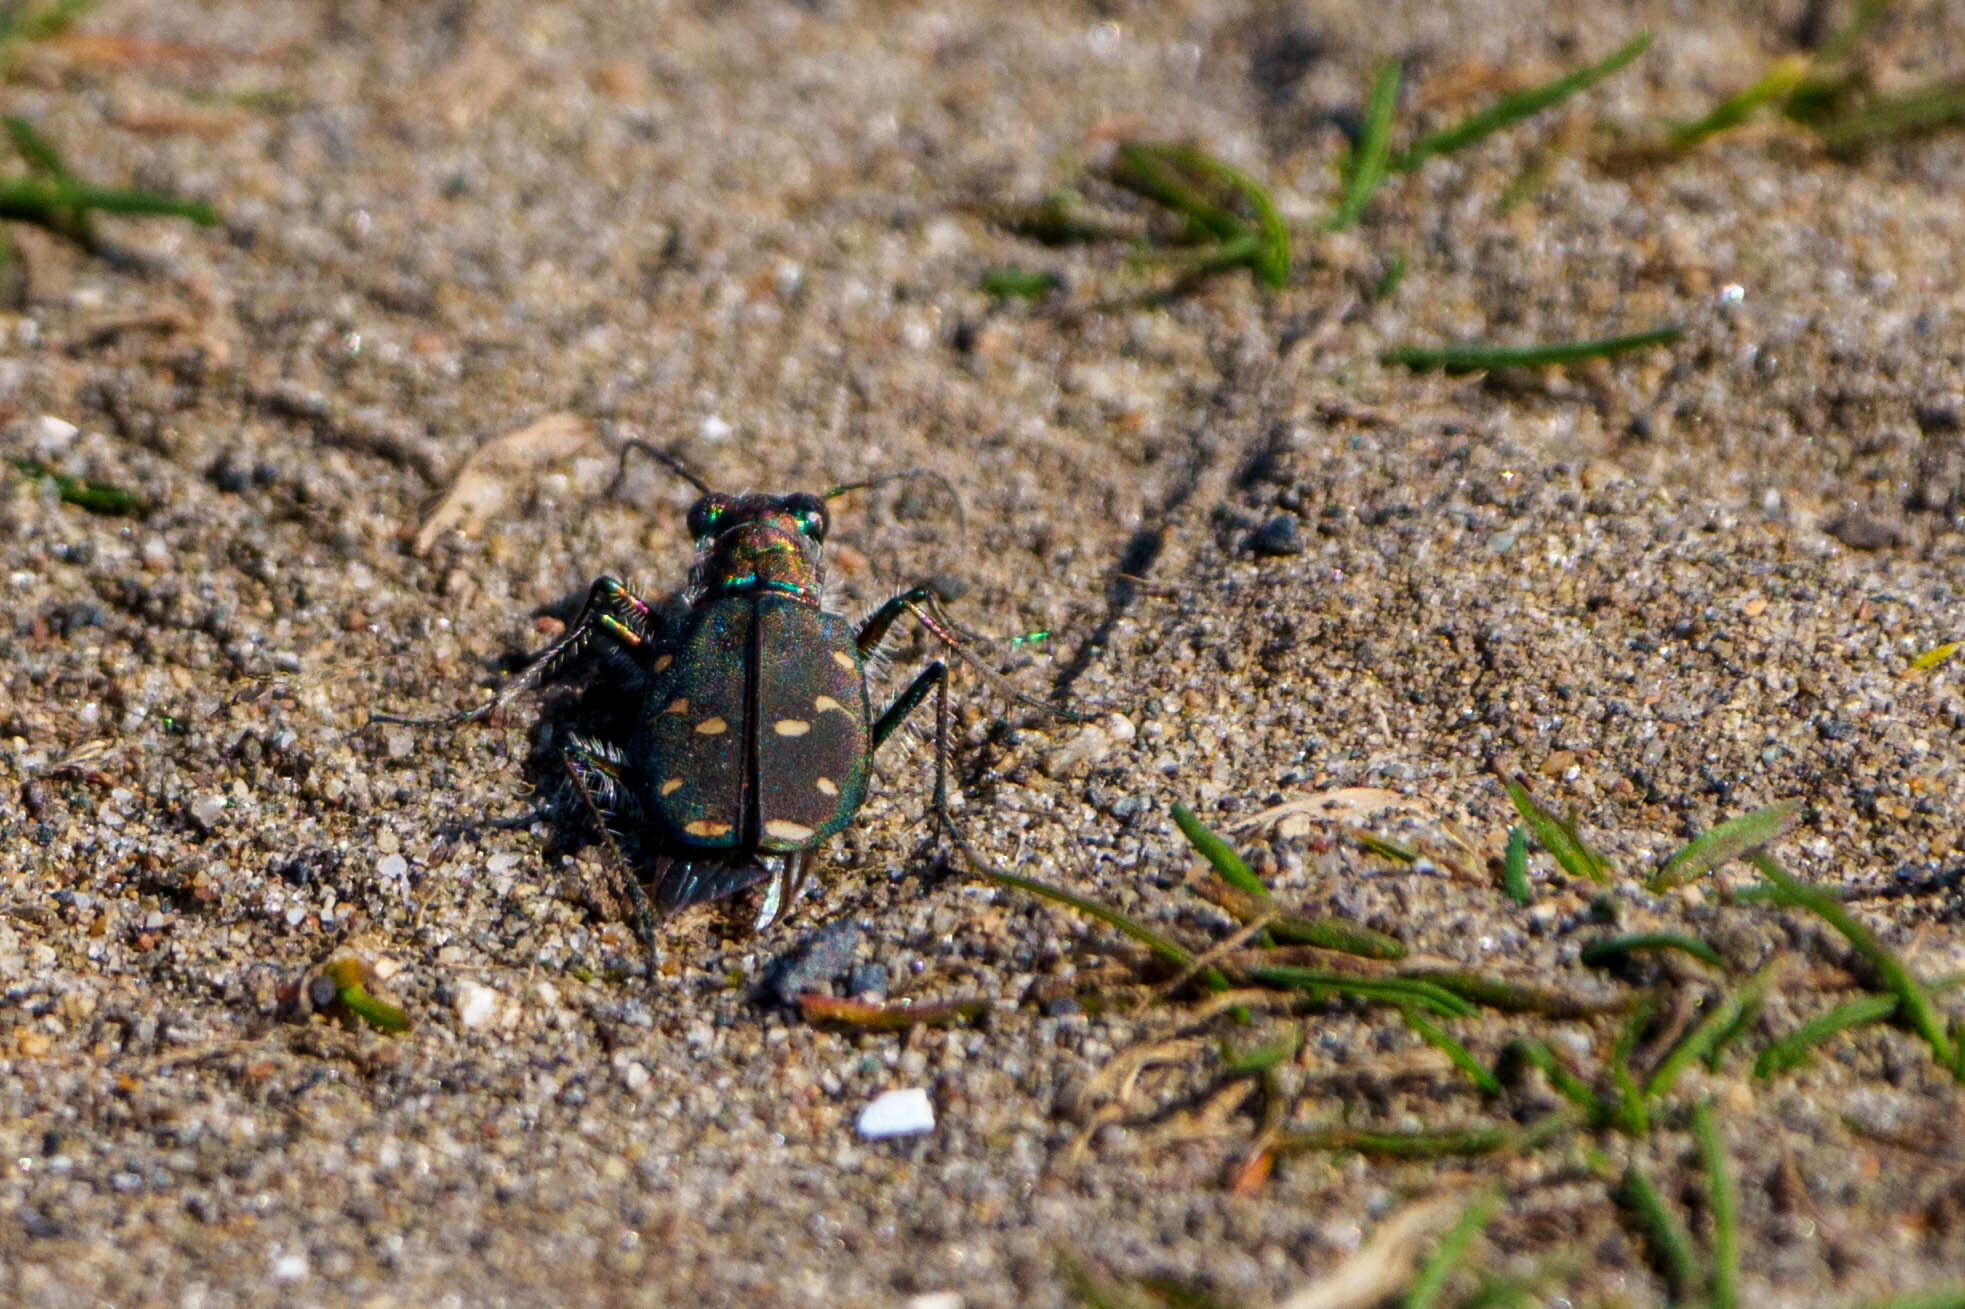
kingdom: Animalia
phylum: Arthropoda
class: Insecta
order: Coleoptera
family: Carabidae
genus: Cicindela
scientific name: Cicindela oregona
